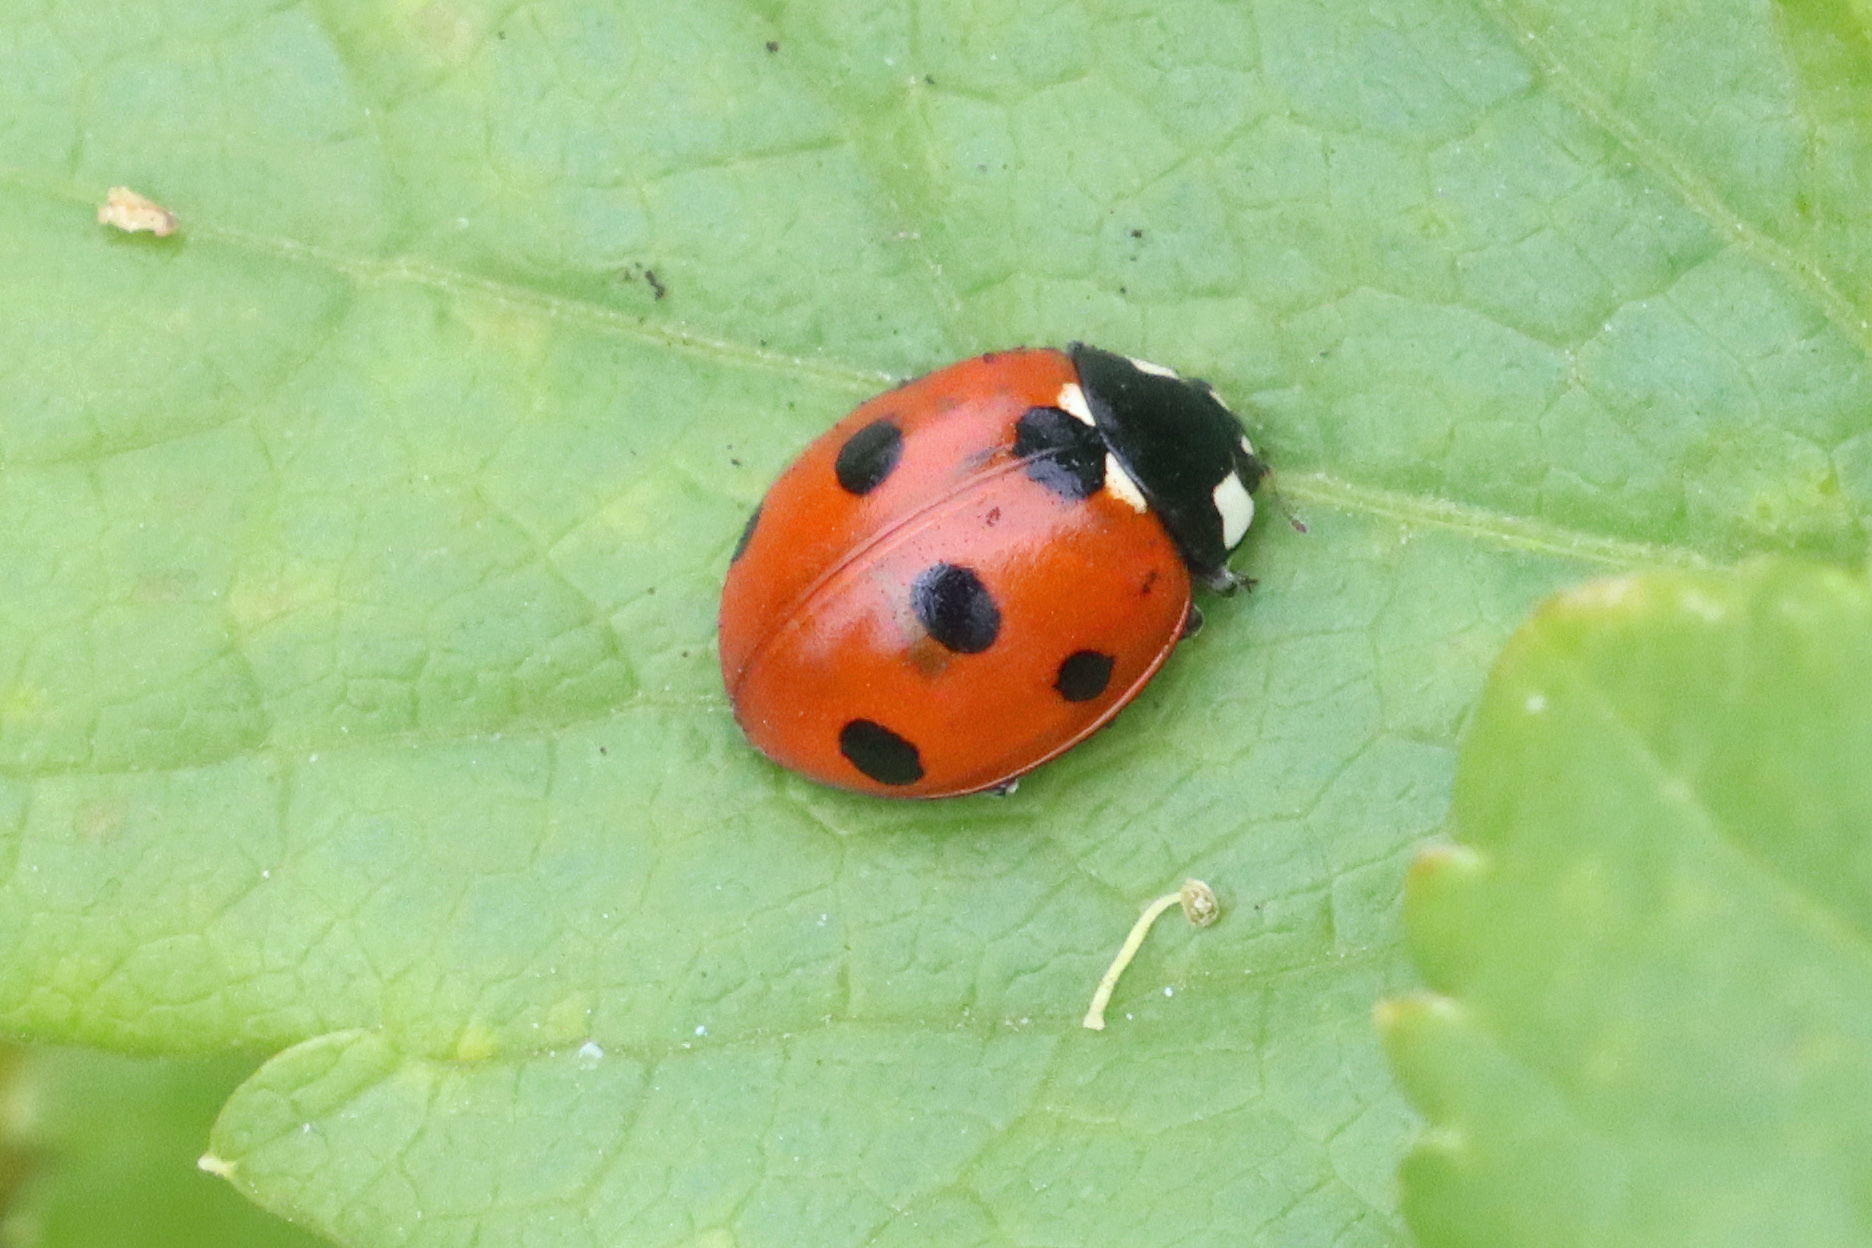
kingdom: Animalia
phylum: Arthropoda
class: Insecta
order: Coleoptera
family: Coccinellidae
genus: Coccinella
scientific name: Coccinella septempunctata
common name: Sevenspotted lady beetle
